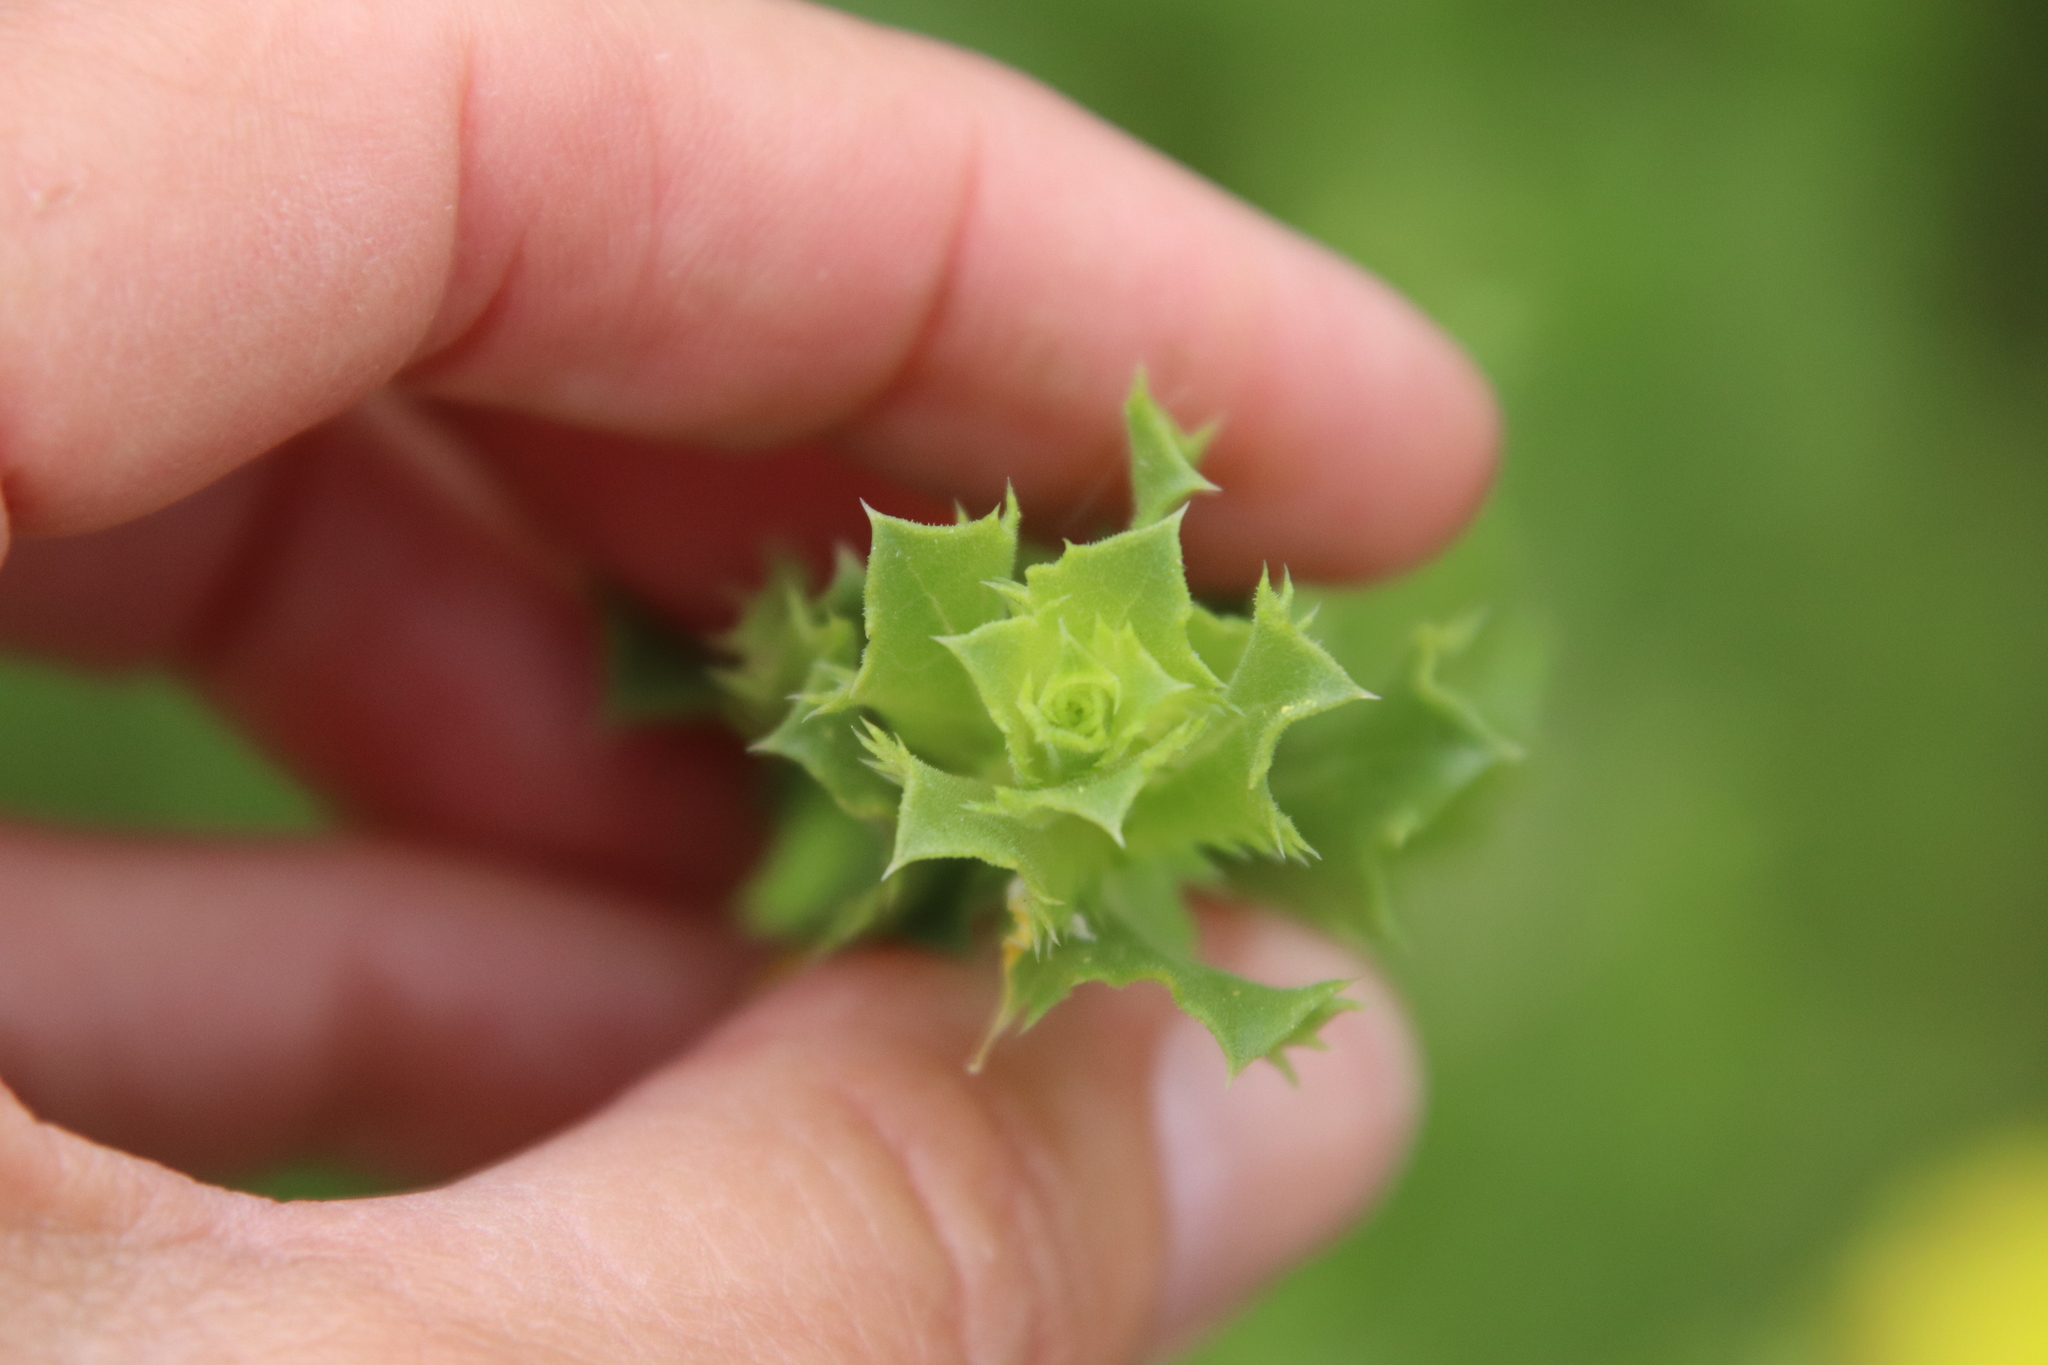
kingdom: Plantae
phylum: Tracheophyta
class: Magnoliopsida
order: Asterales
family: Asteraceae
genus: Hazardia
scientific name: Hazardia squarrosa
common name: Saw-tooth goldenbush
